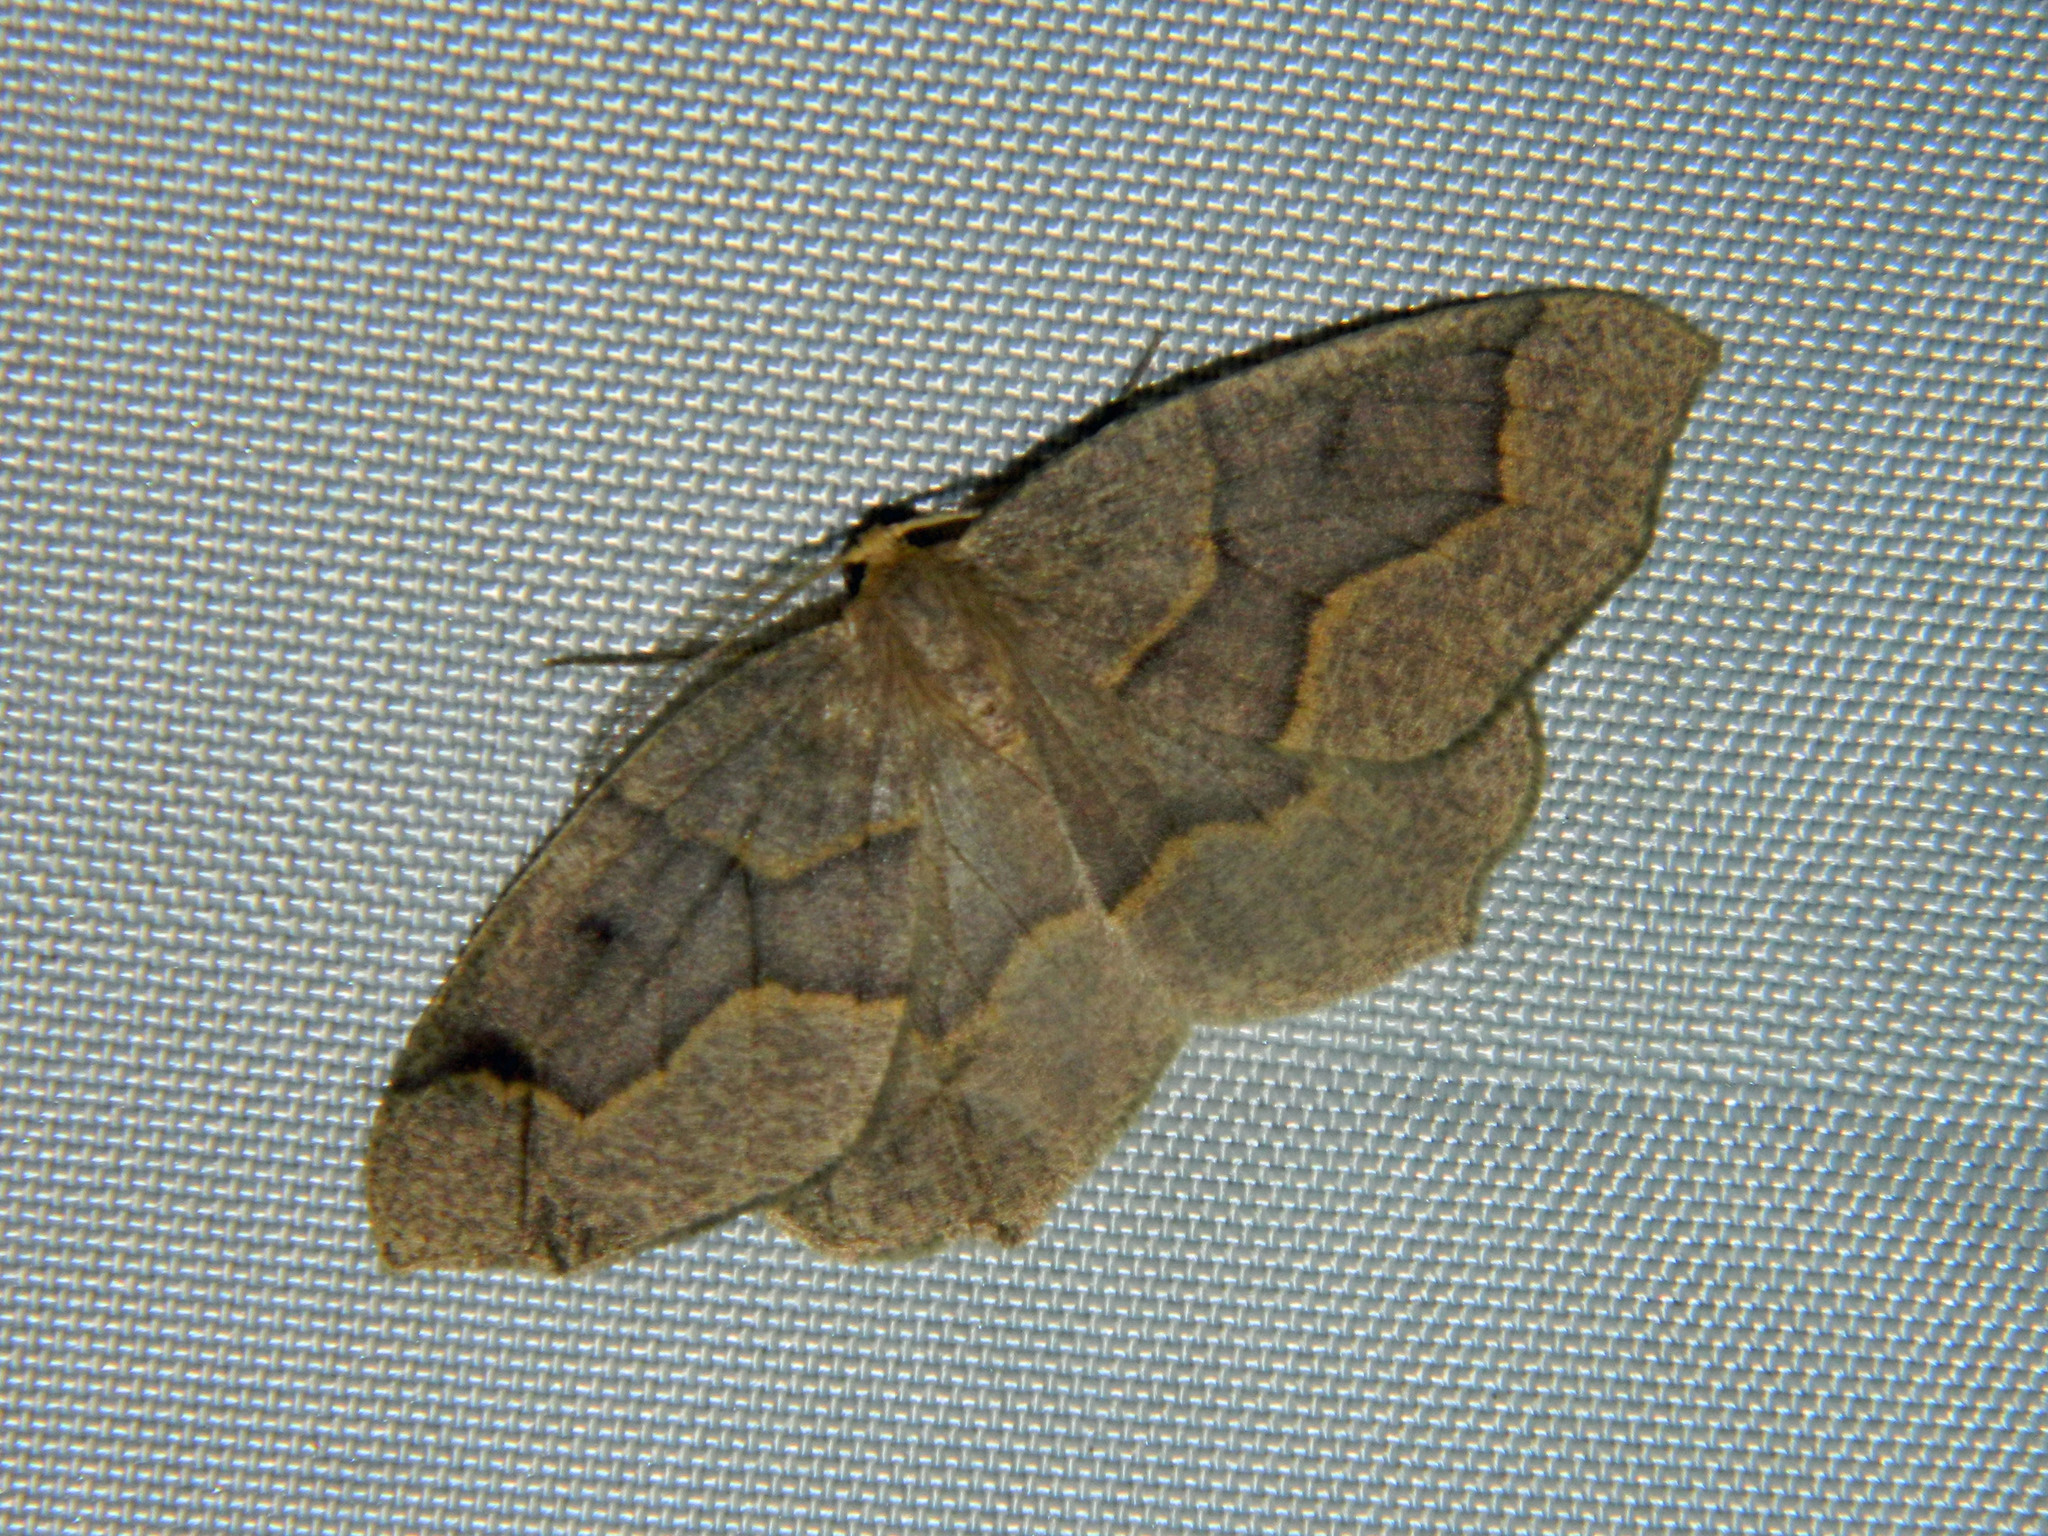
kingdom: Animalia
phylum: Arthropoda
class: Insecta
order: Lepidoptera
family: Geometridae
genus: Lambdina
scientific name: Lambdina fiscellaria
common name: Hemlock looper
